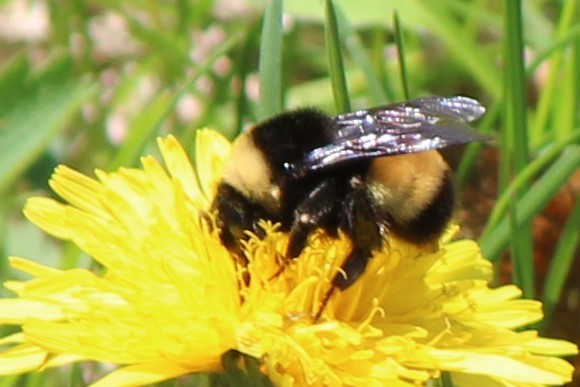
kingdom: Animalia
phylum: Arthropoda
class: Insecta
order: Hymenoptera
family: Apidae
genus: Bombus
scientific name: Bombus terricola
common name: Yellow-banded bumble bee
